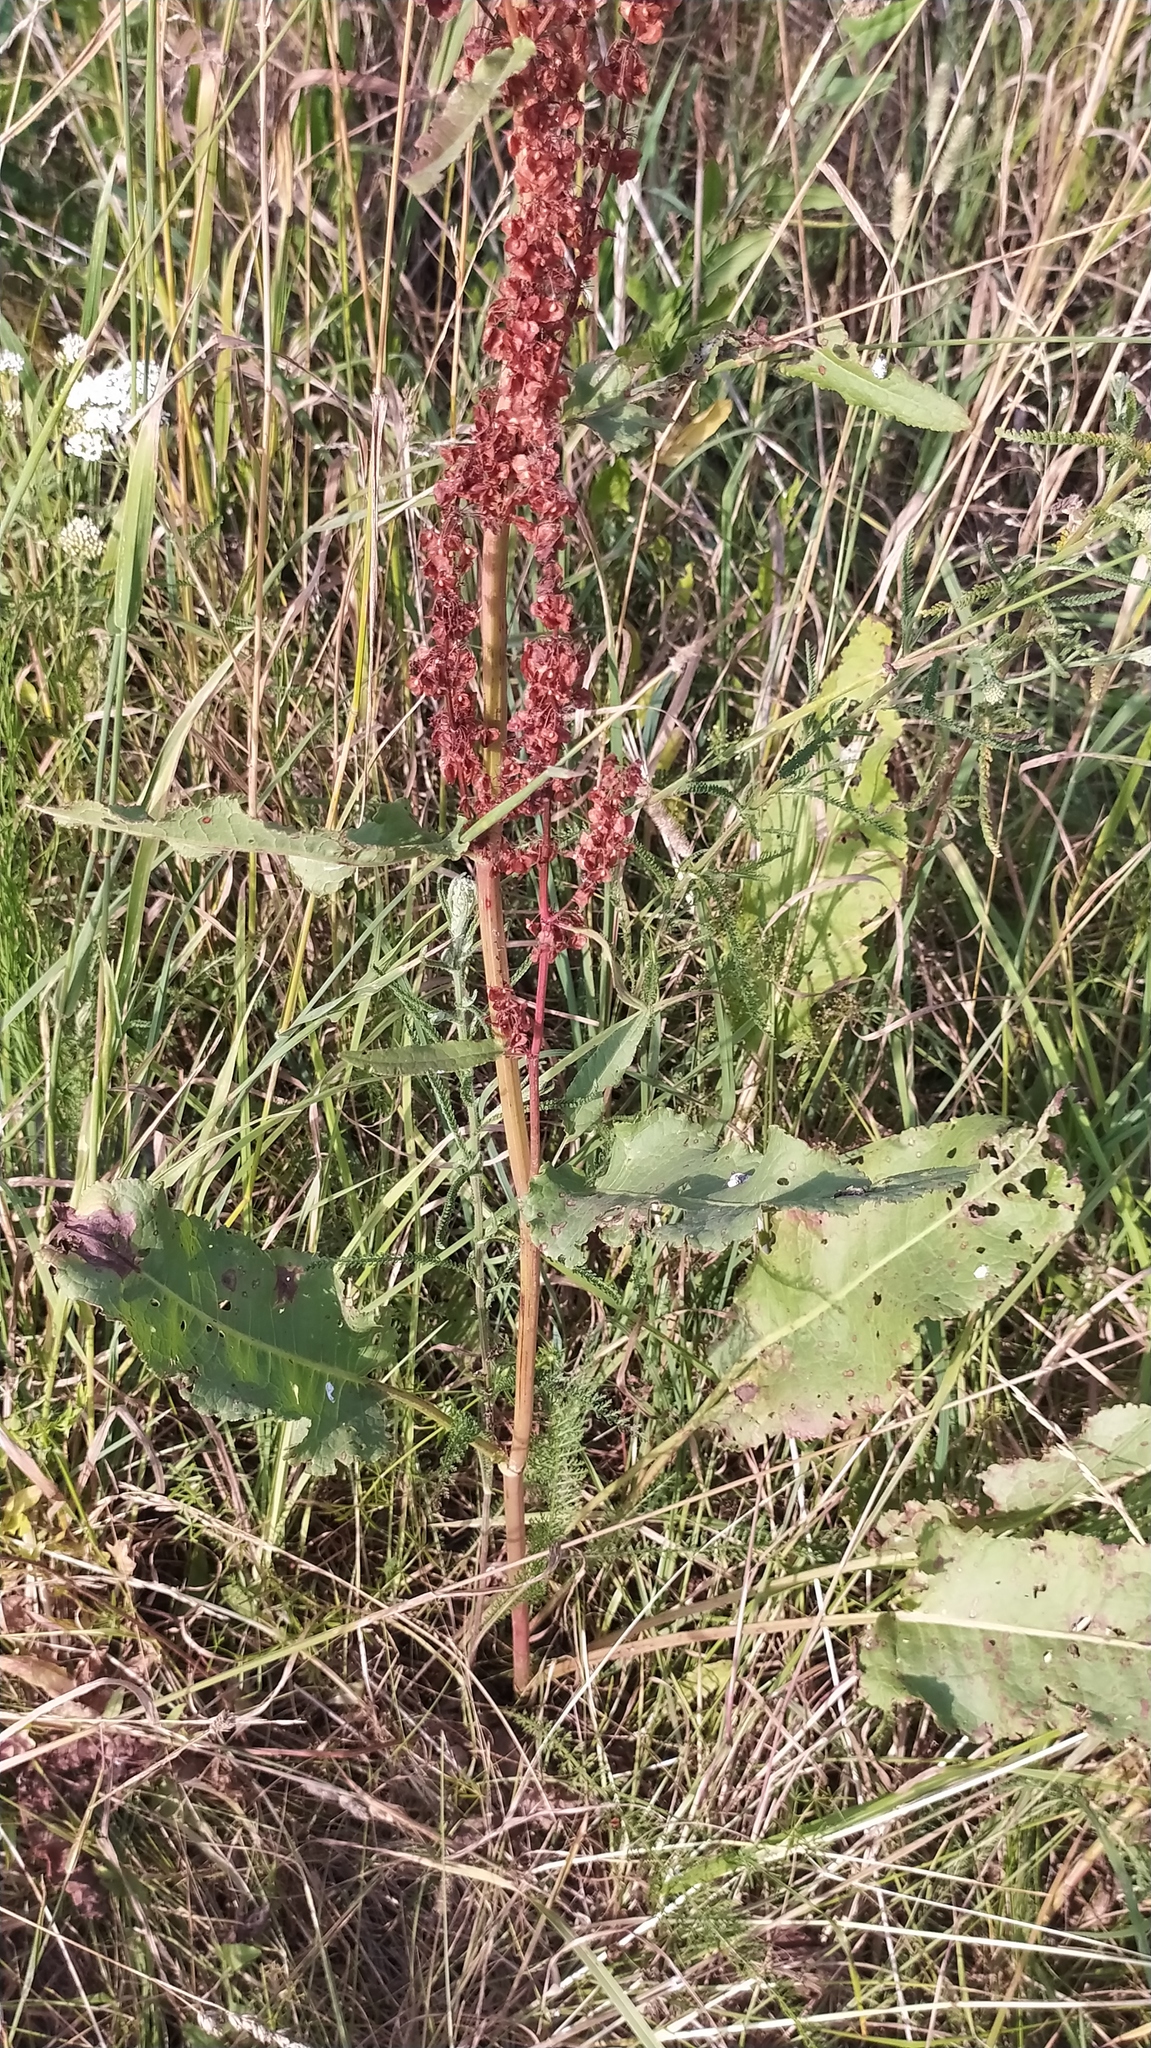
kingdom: Plantae
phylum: Tracheophyta
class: Magnoliopsida
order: Caryophyllales
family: Polygonaceae
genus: Rumex
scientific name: Rumex confertus
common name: Russian dock
